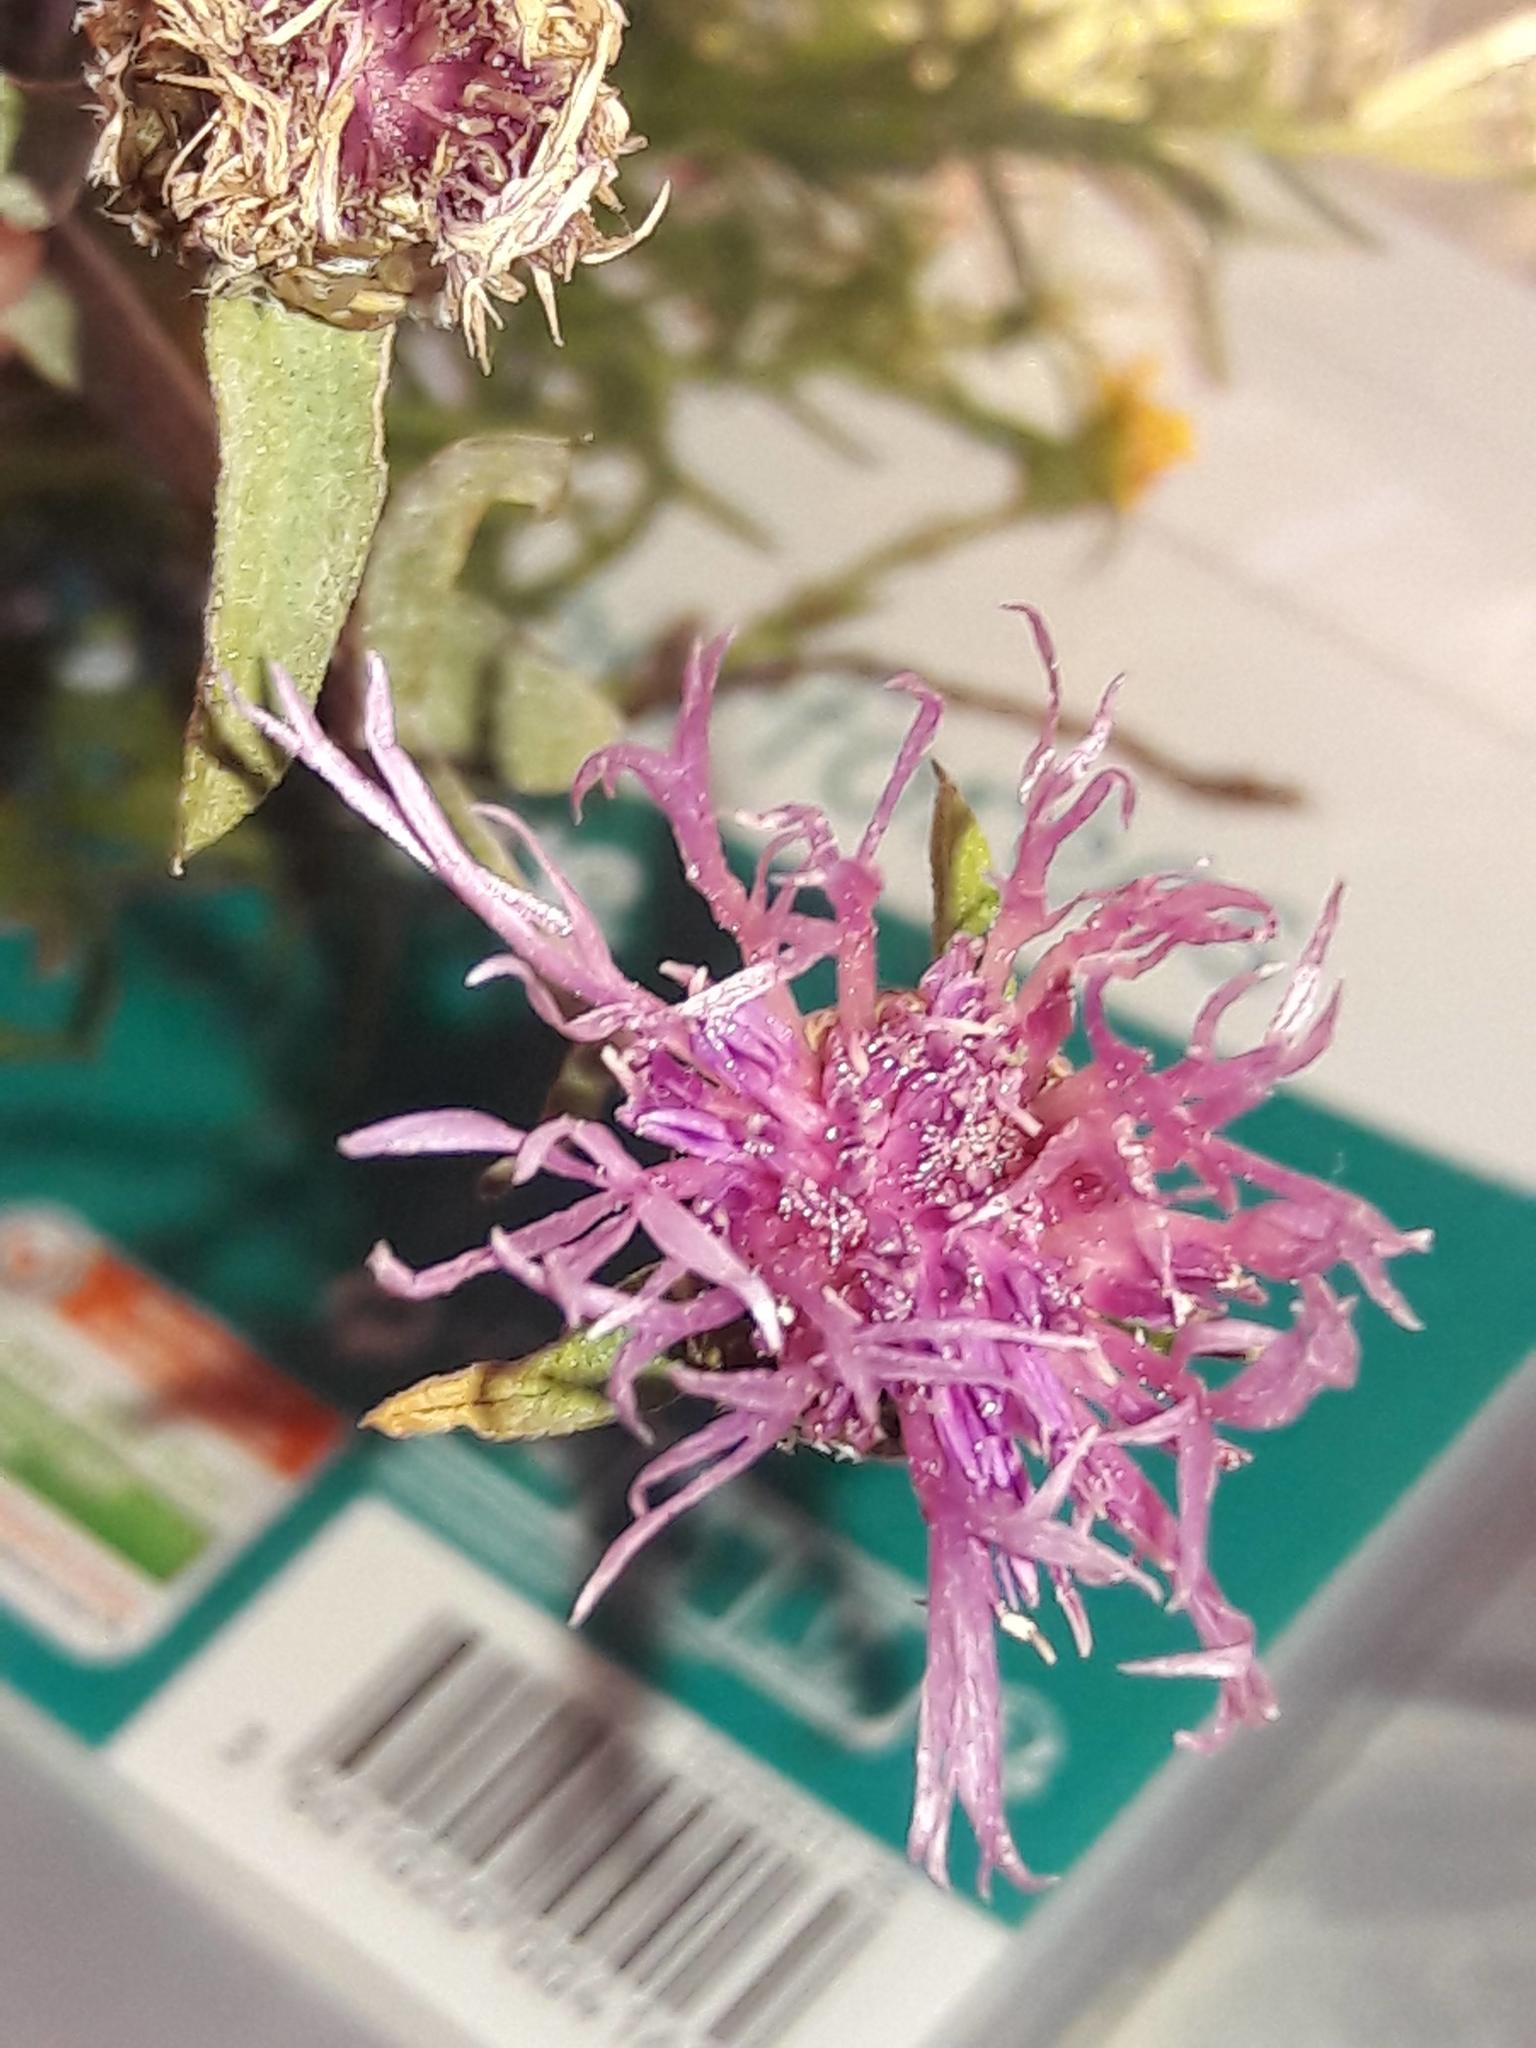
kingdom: Plantae
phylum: Tracheophyta
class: Magnoliopsida
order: Asterales
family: Asteraceae
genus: Centaurea
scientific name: Centaurea jacea
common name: Brown knapweed
